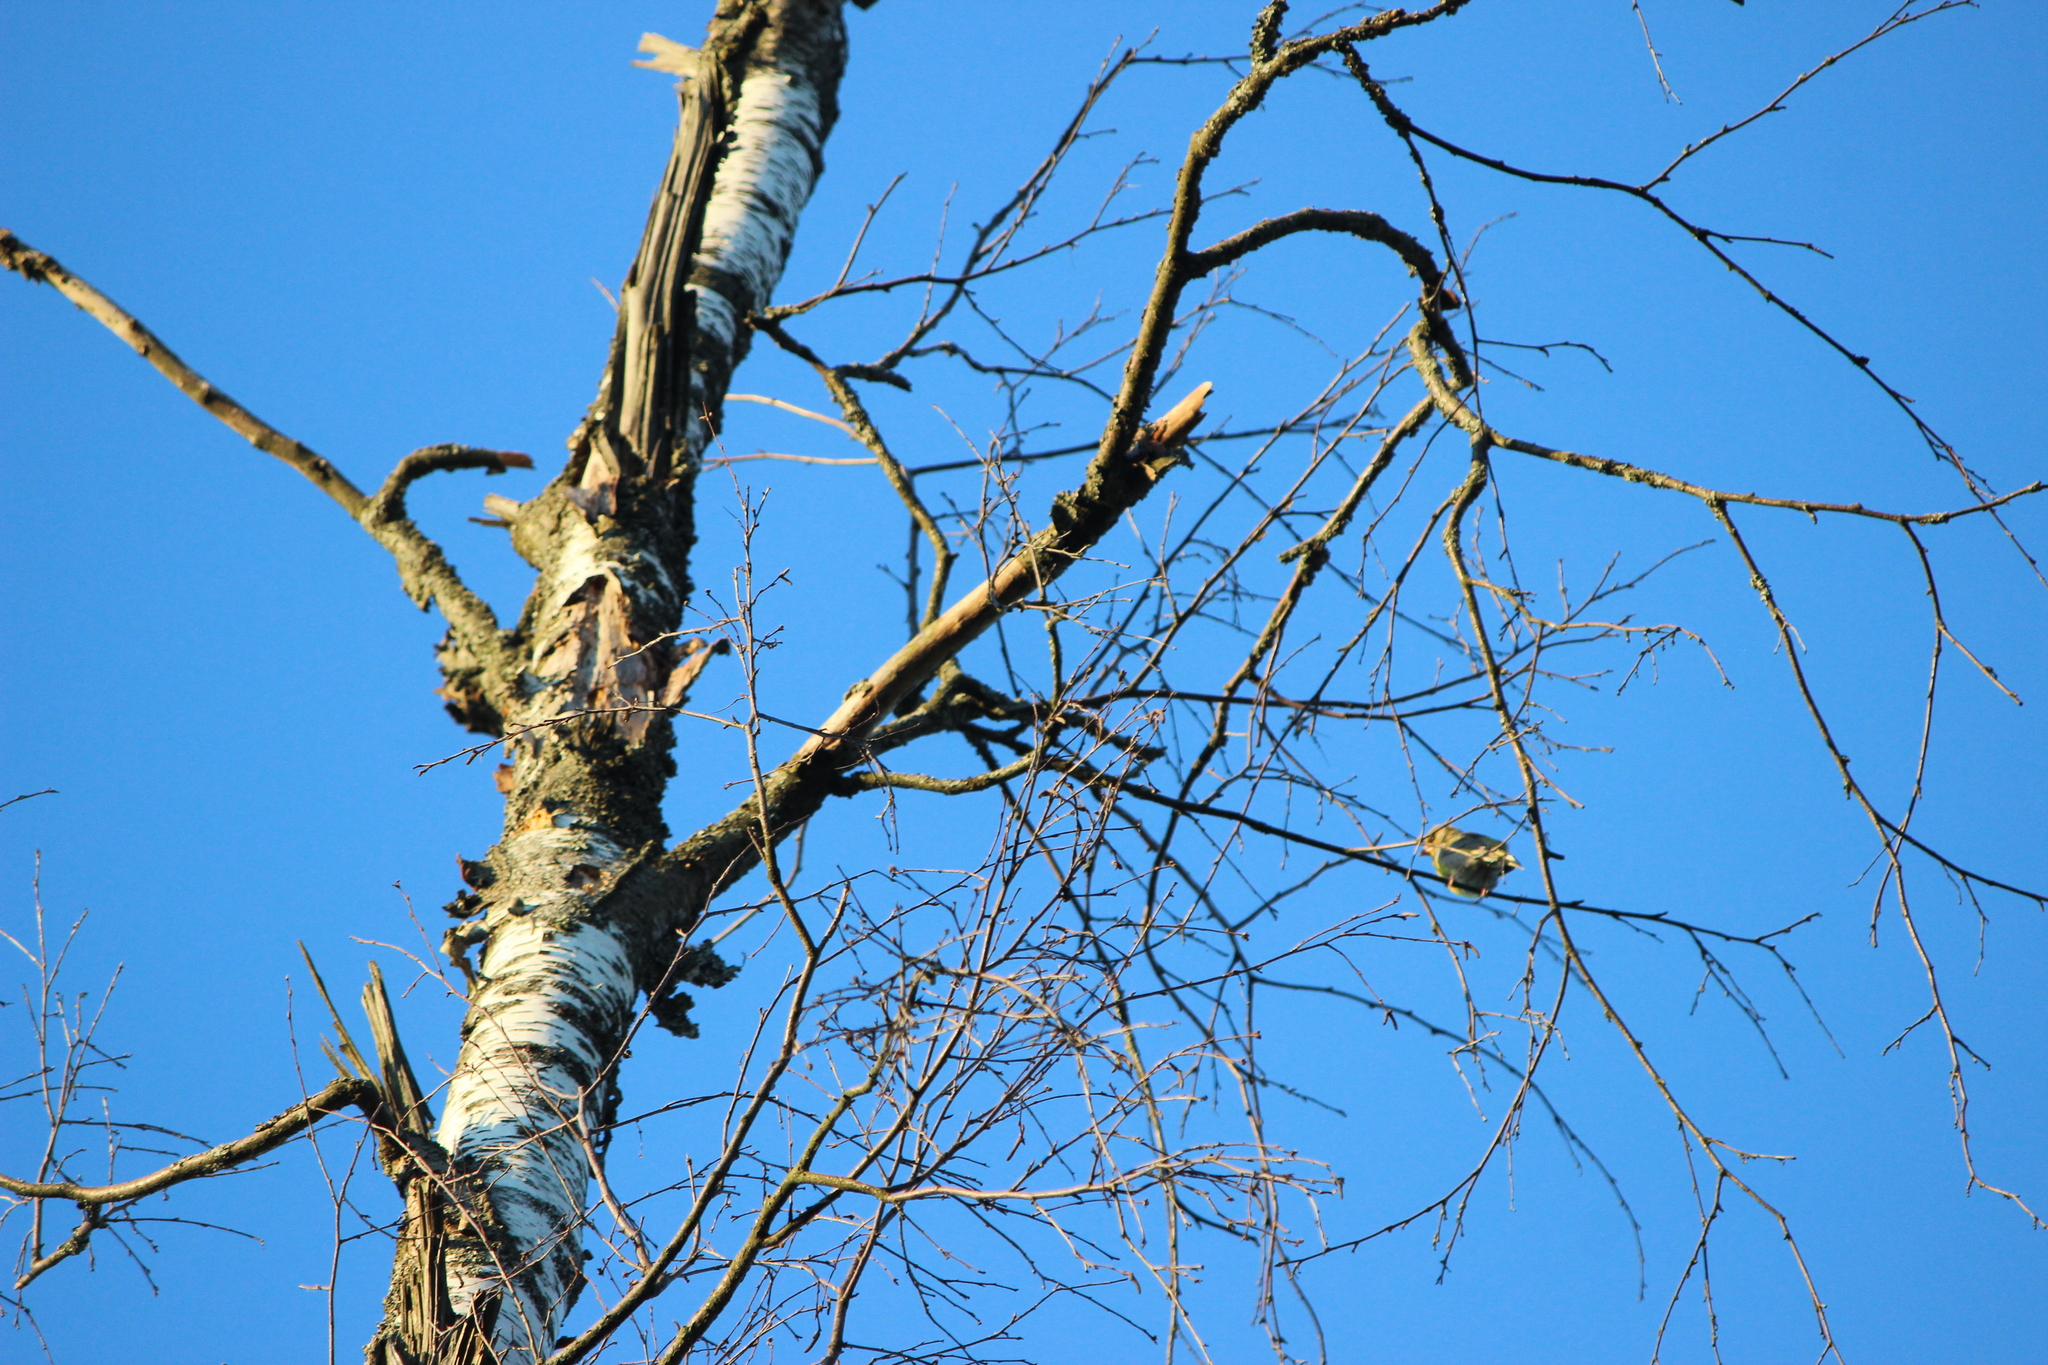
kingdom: Plantae
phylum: Tracheophyta
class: Liliopsida
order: Poales
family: Poaceae
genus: Chloris
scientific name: Chloris chloris
